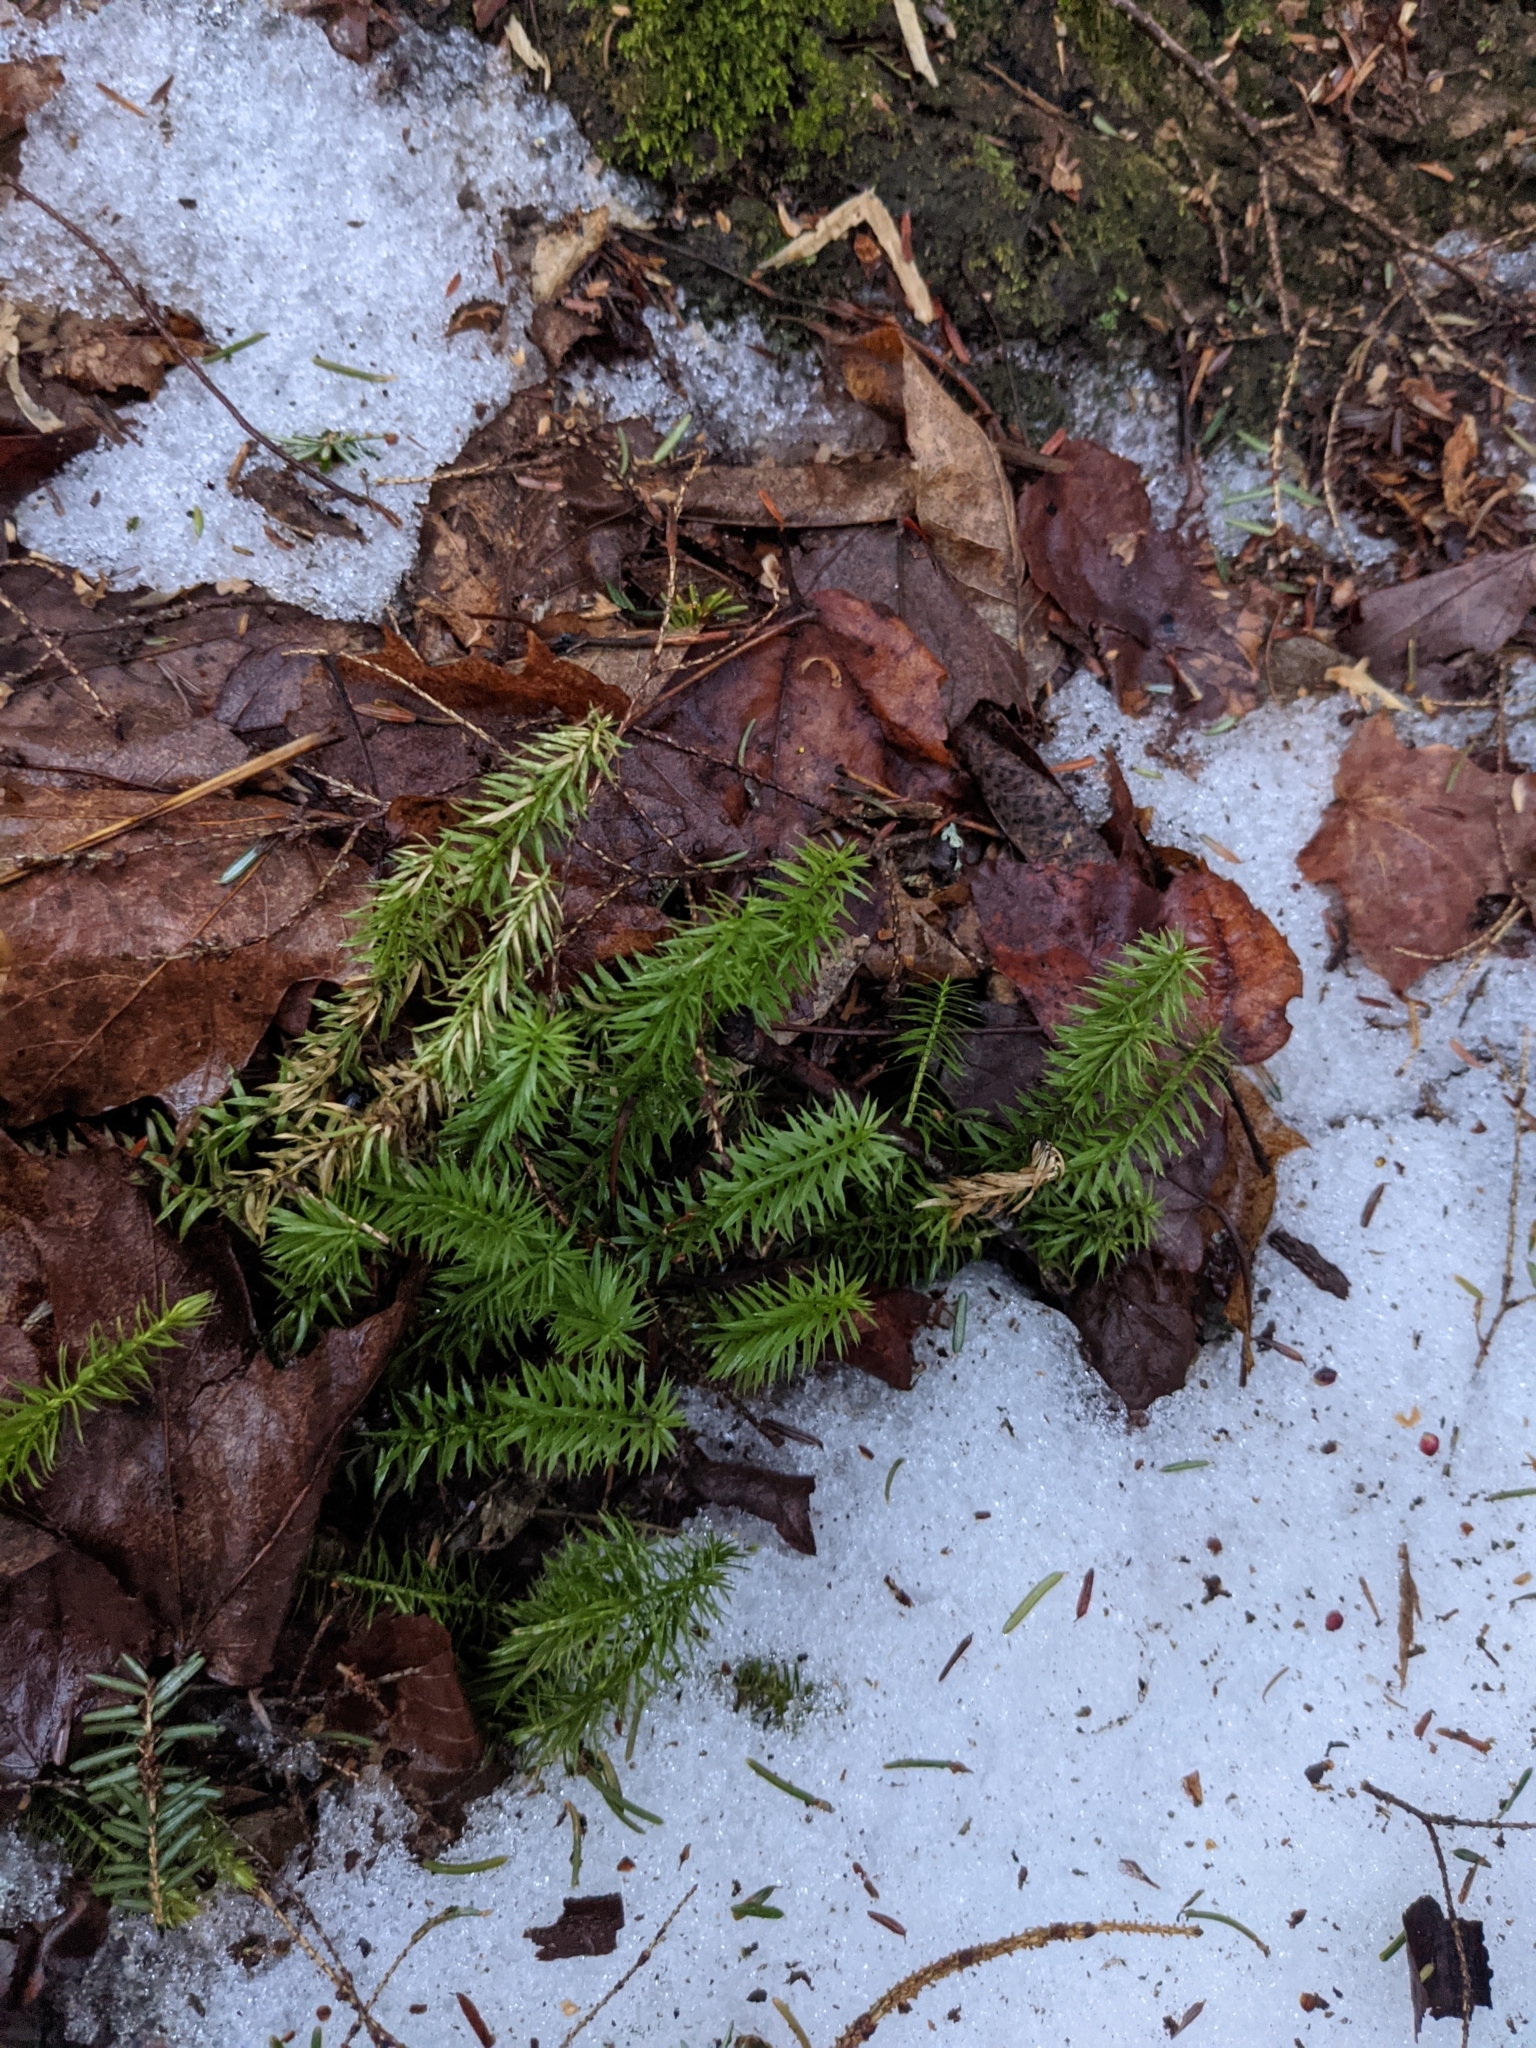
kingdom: Plantae
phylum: Tracheophyta
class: Lycopodiopsida
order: Lycopodiales
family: Lycopodiaceae
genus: Huperzia
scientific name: Huperzia lucidula
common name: Shining clubmoss
